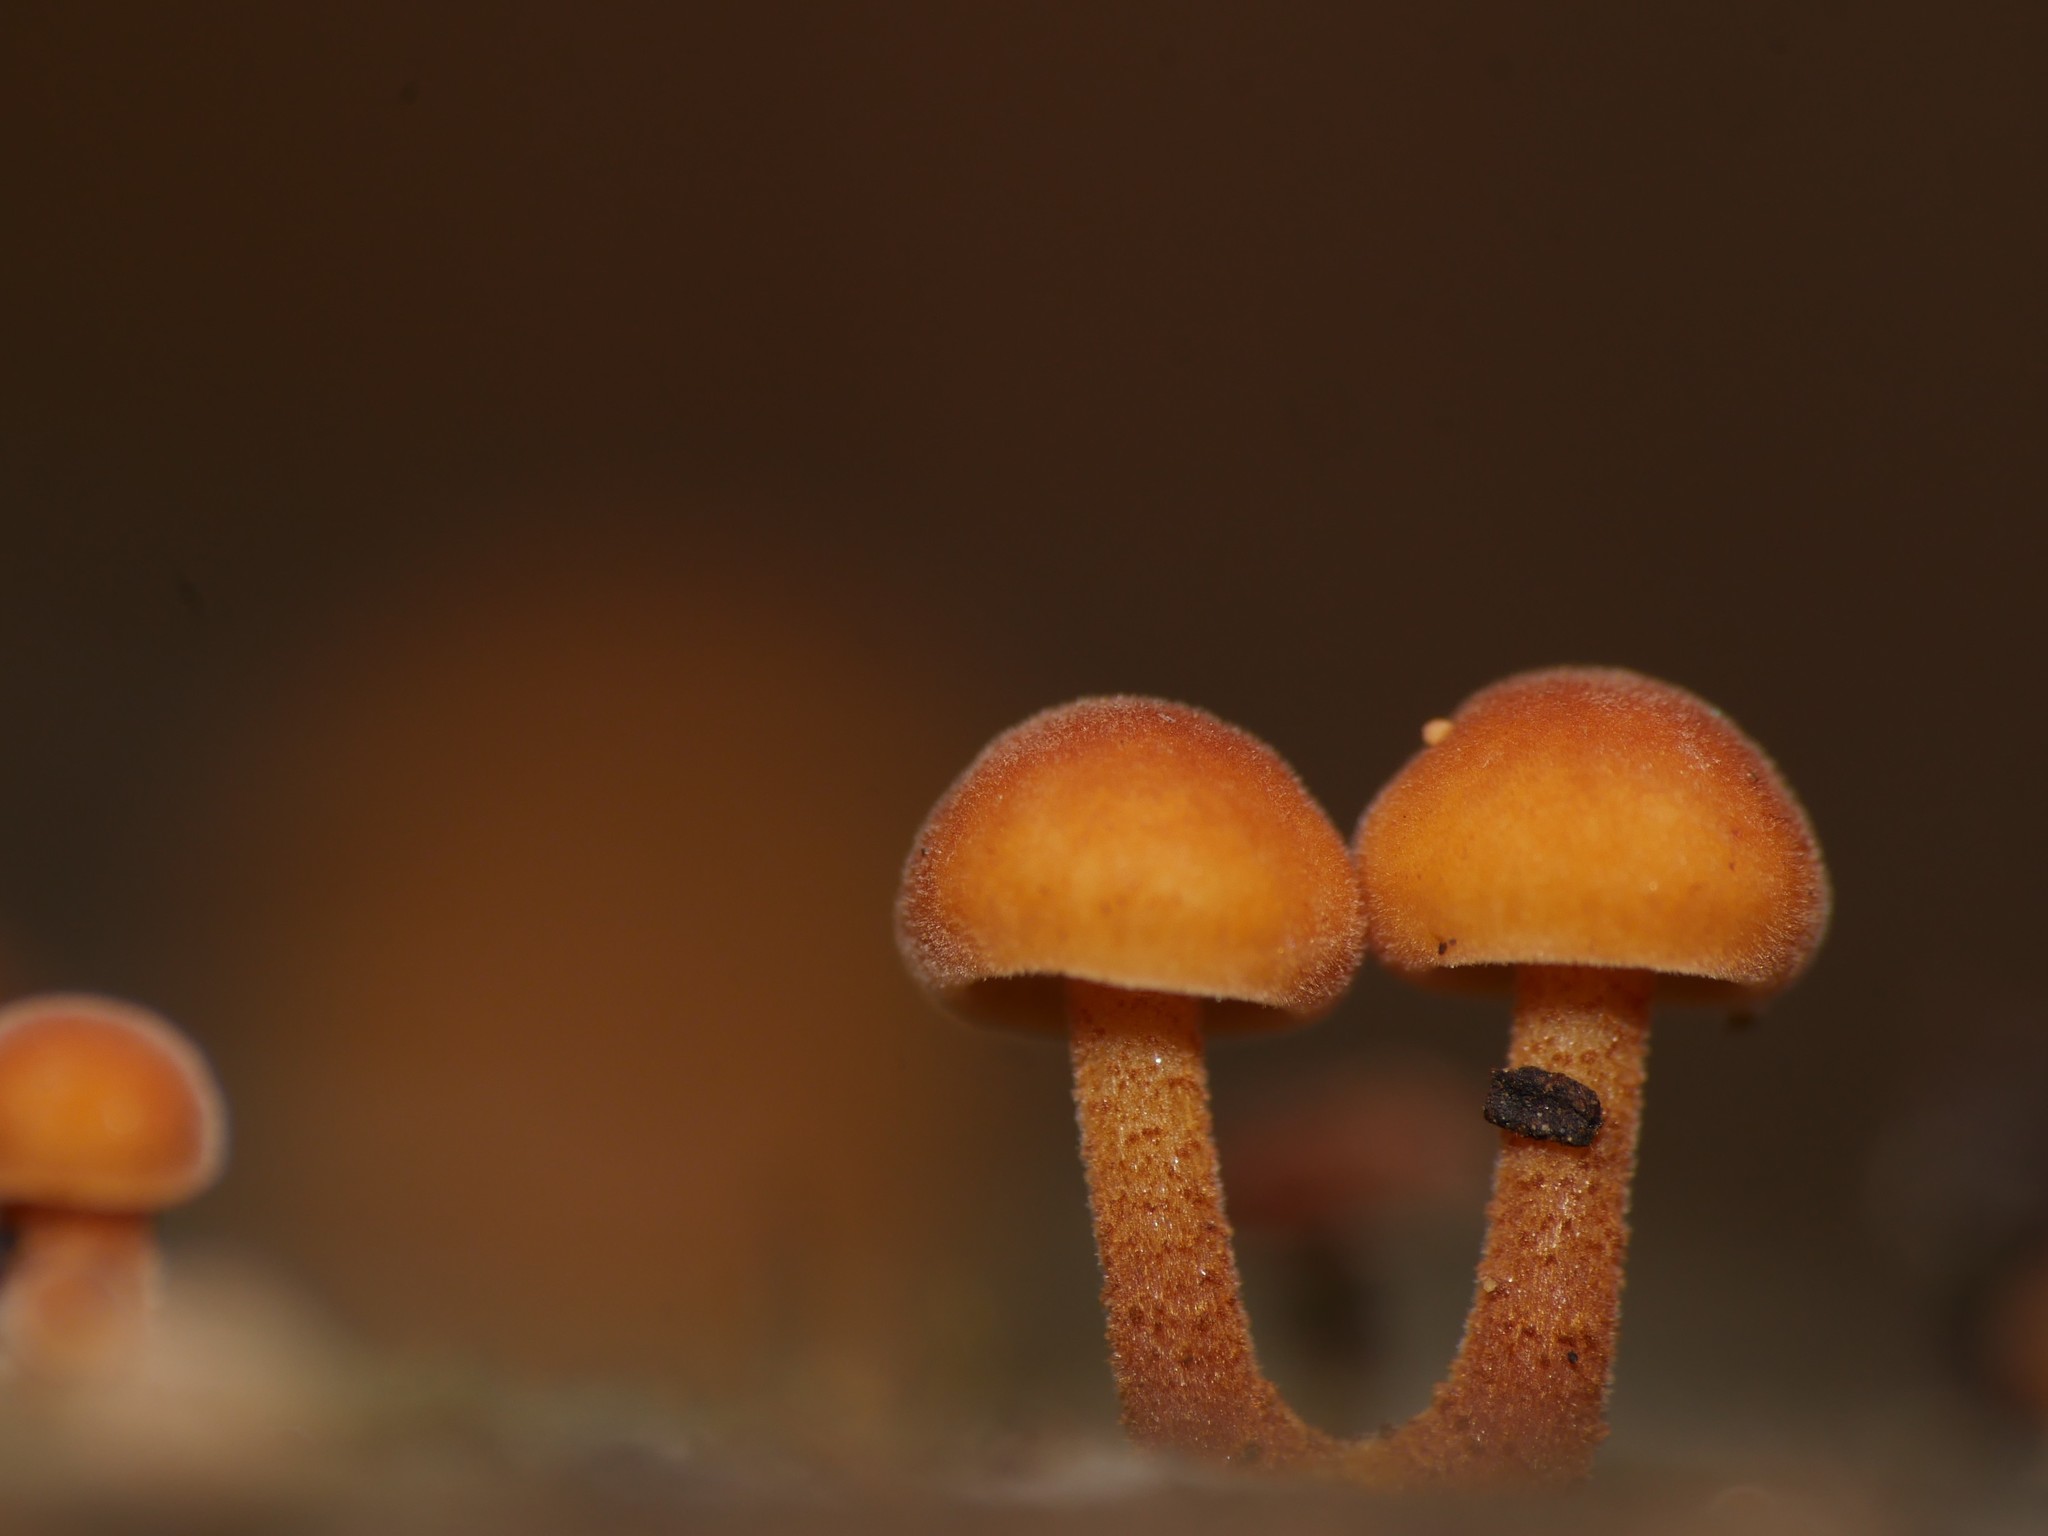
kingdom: Fungi
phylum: Basidiomycota
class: Agaricomycetes
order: Agaricales
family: Physalacriaceae
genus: Flammulina
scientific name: Flammulina
